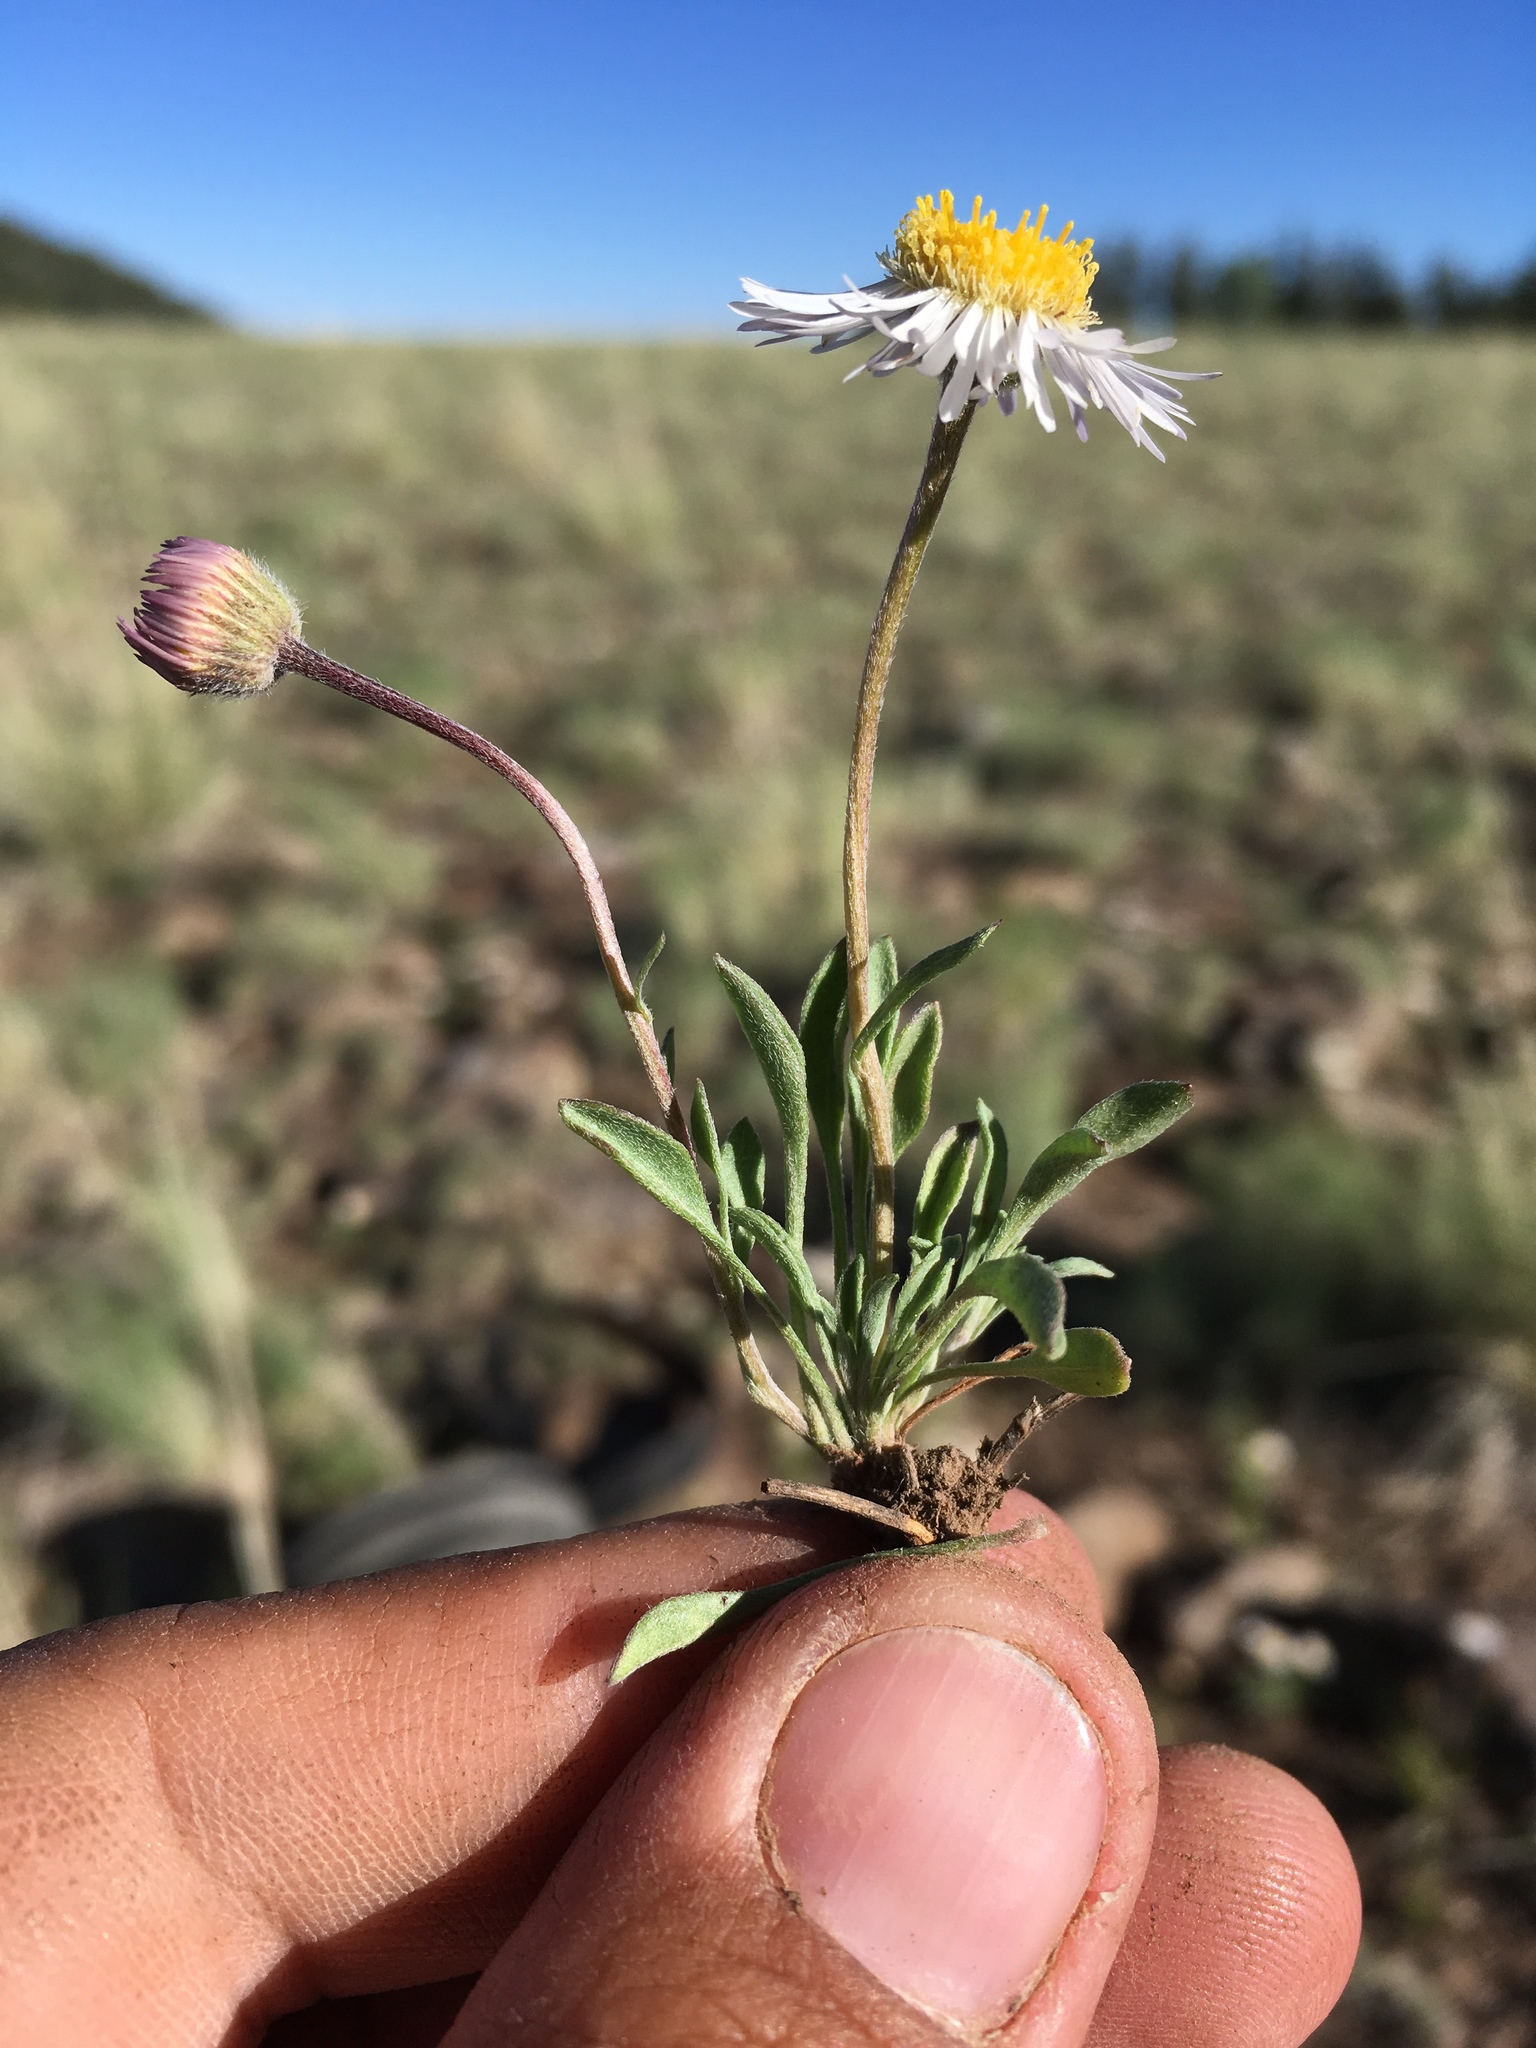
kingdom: Plantae
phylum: Tracheophyta
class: Magnoliopsida
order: Asterales
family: Asteraceae
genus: Erigeron
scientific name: Erigeron canus
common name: Hoary fleabane
